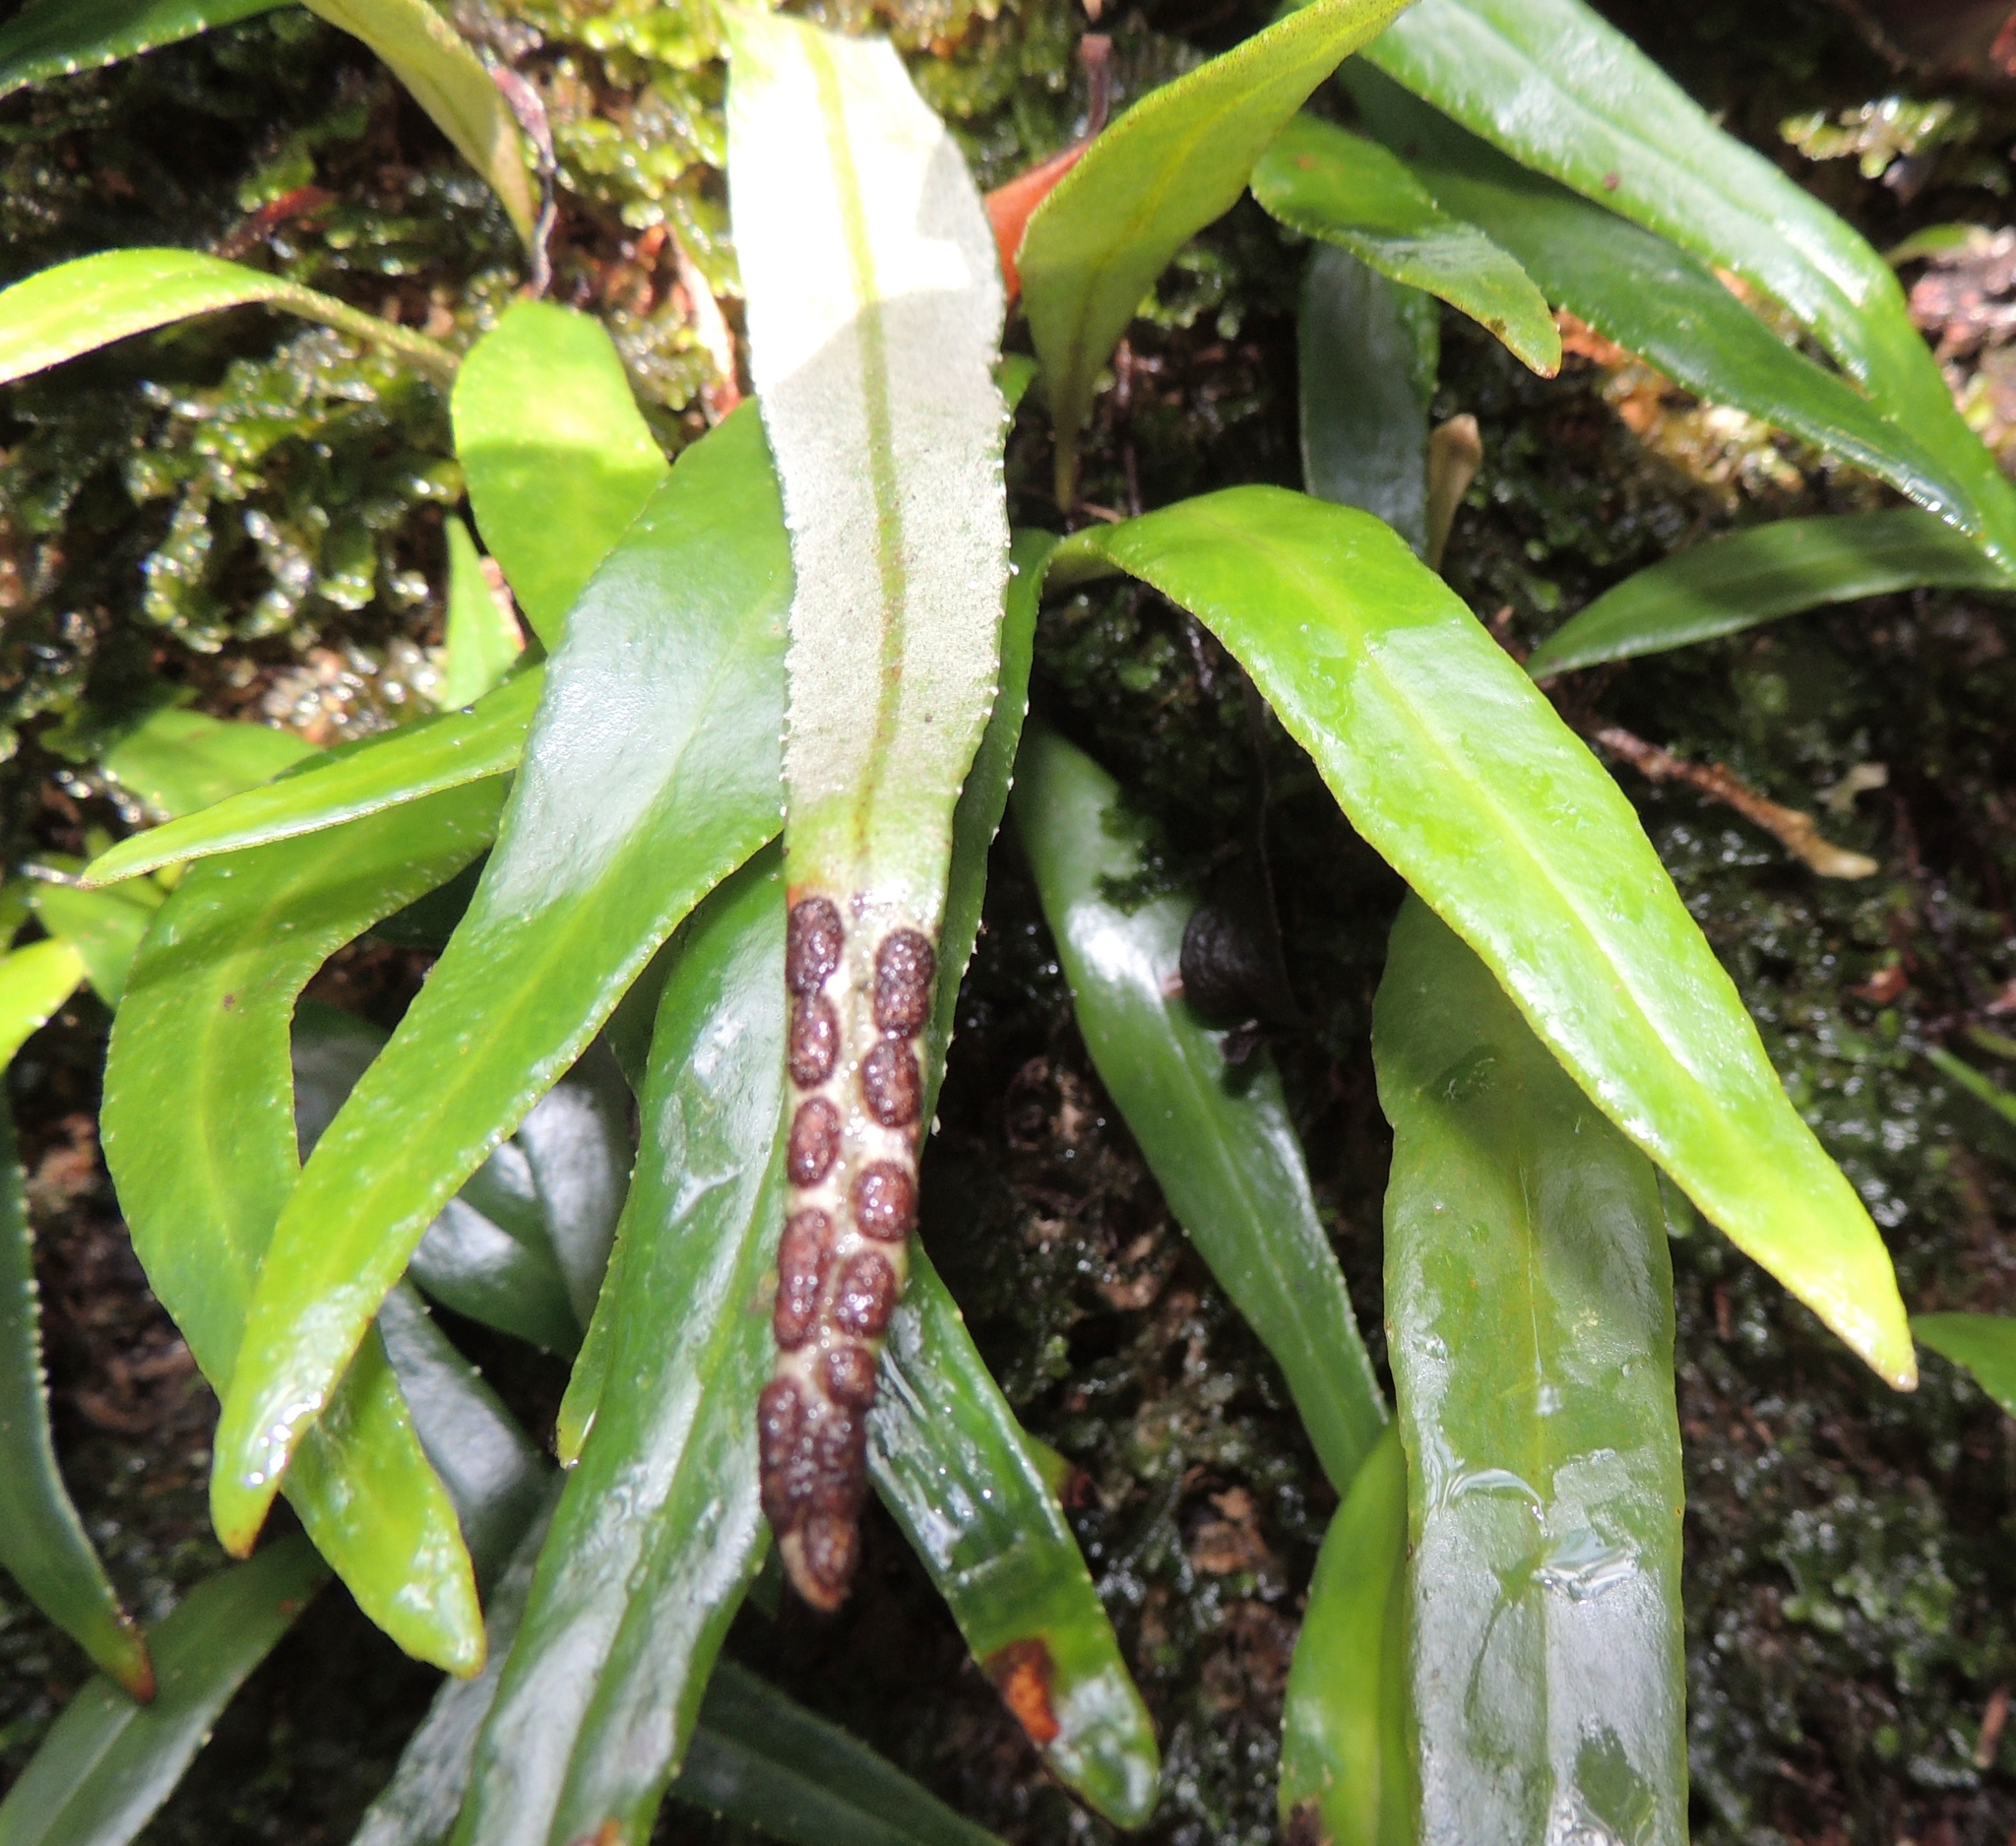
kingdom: Plantae
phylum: Tracheophyta
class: Polypodiopsida
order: Polypodiales
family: Polypodiaceae
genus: Pyrrosia
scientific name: Pyrrosia confluens
